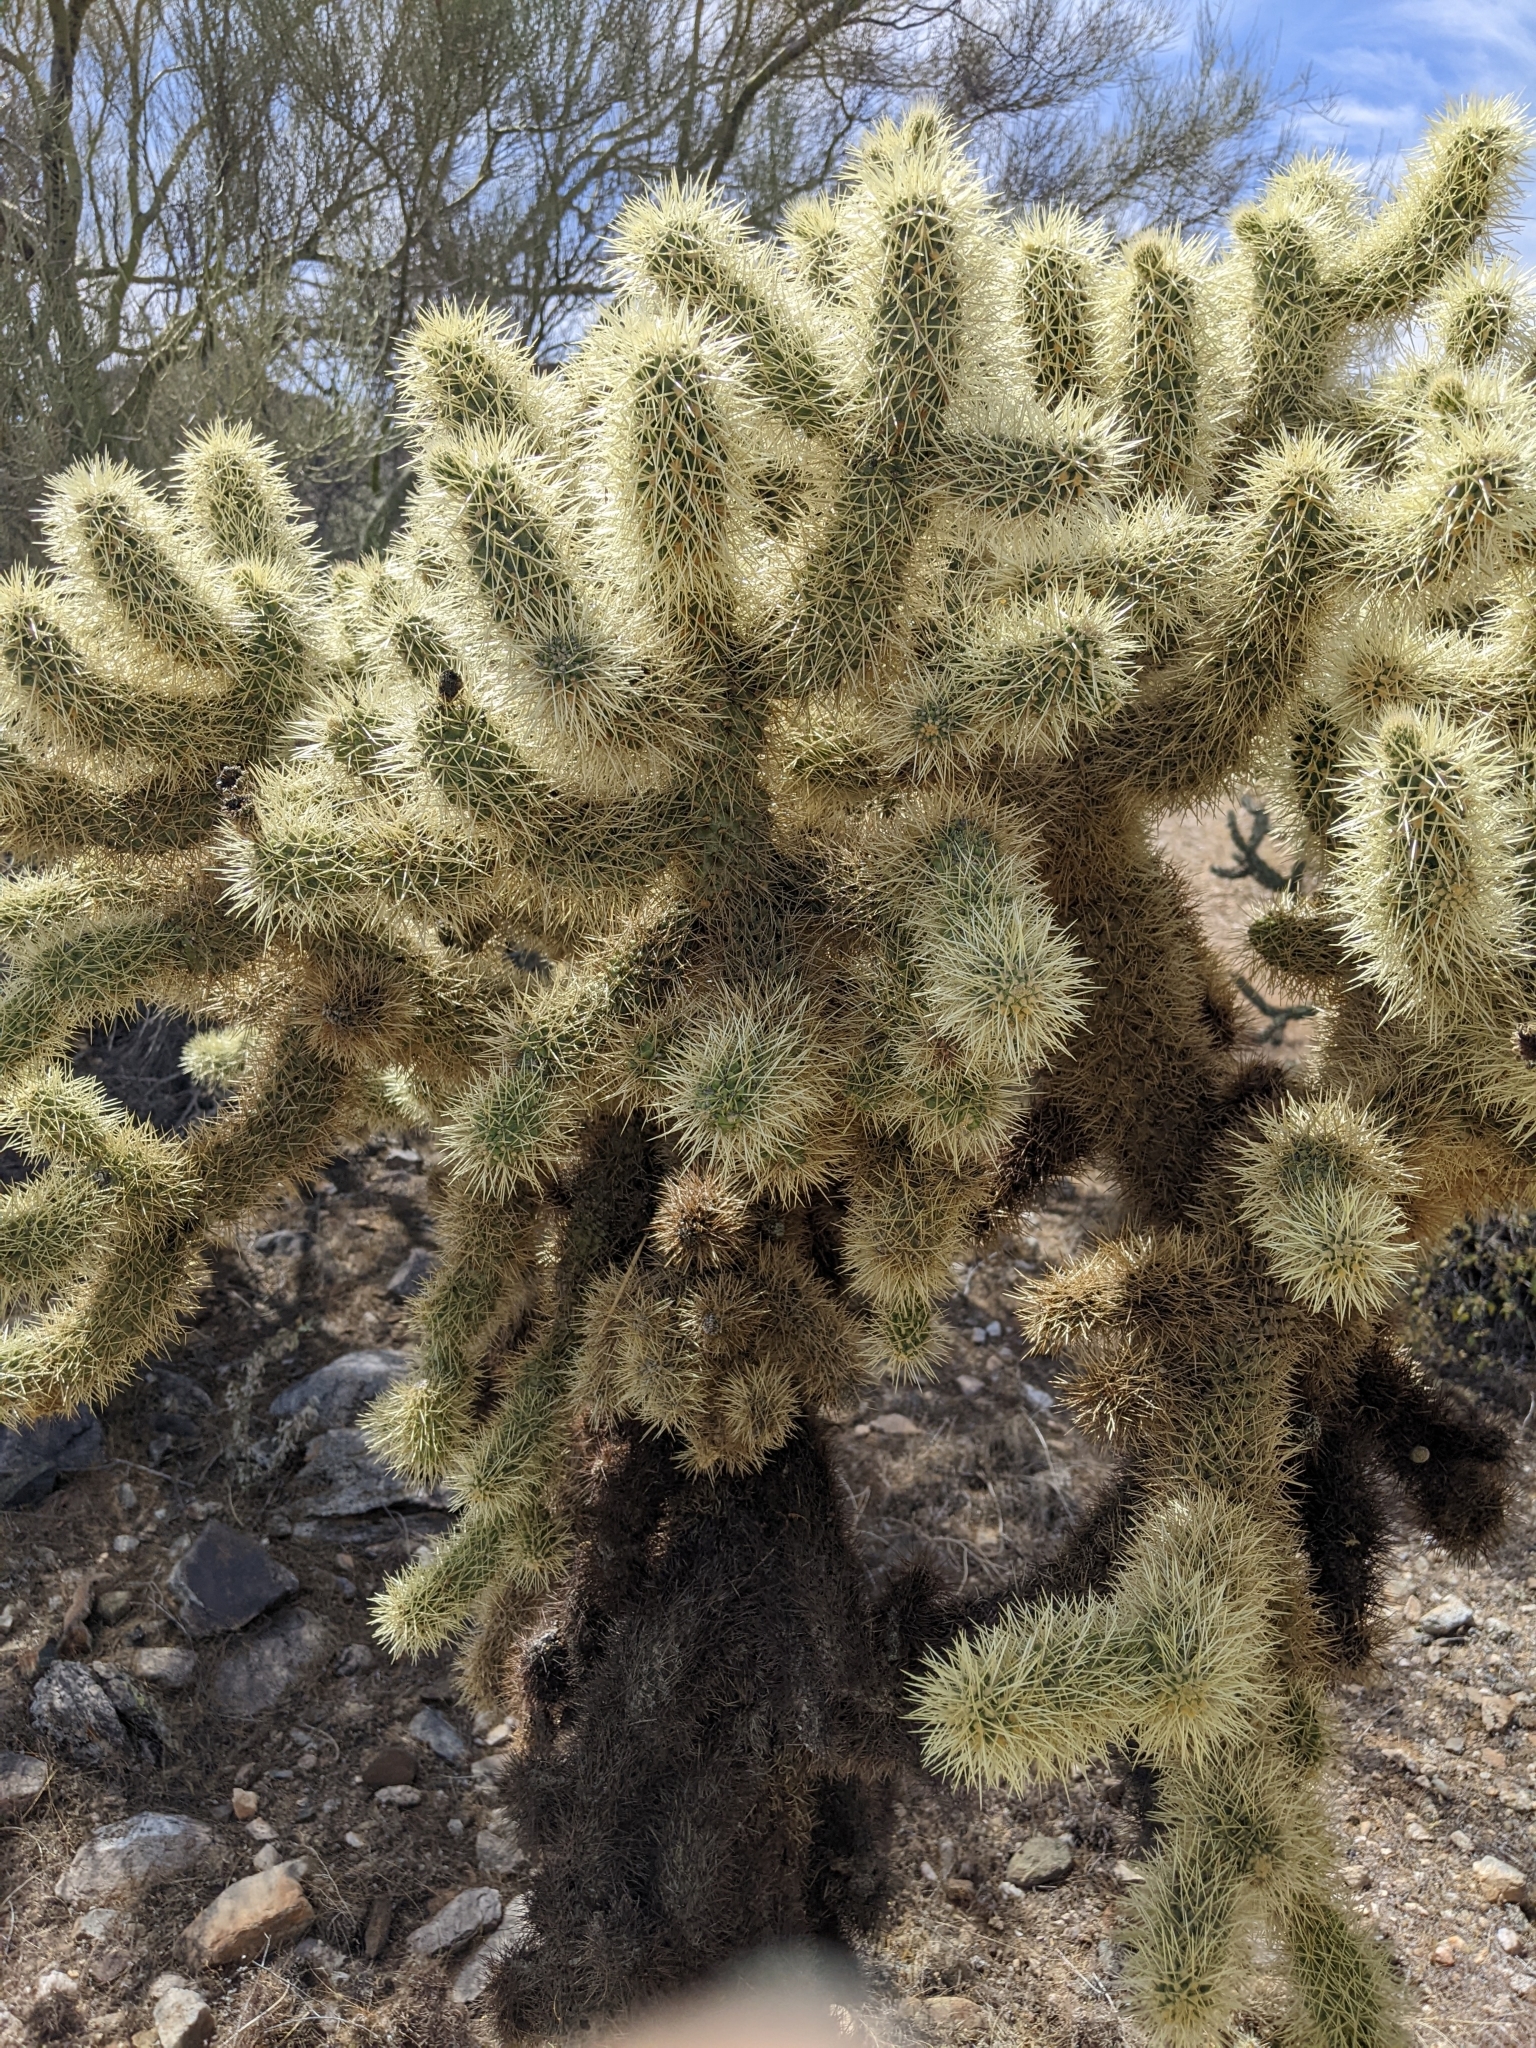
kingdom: Plantae
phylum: Tracheophyta
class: Magnoliopsida
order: Caryophyllales
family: Cactaceae
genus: Cylindropuntia
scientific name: Cylindropuntia fosbergii
